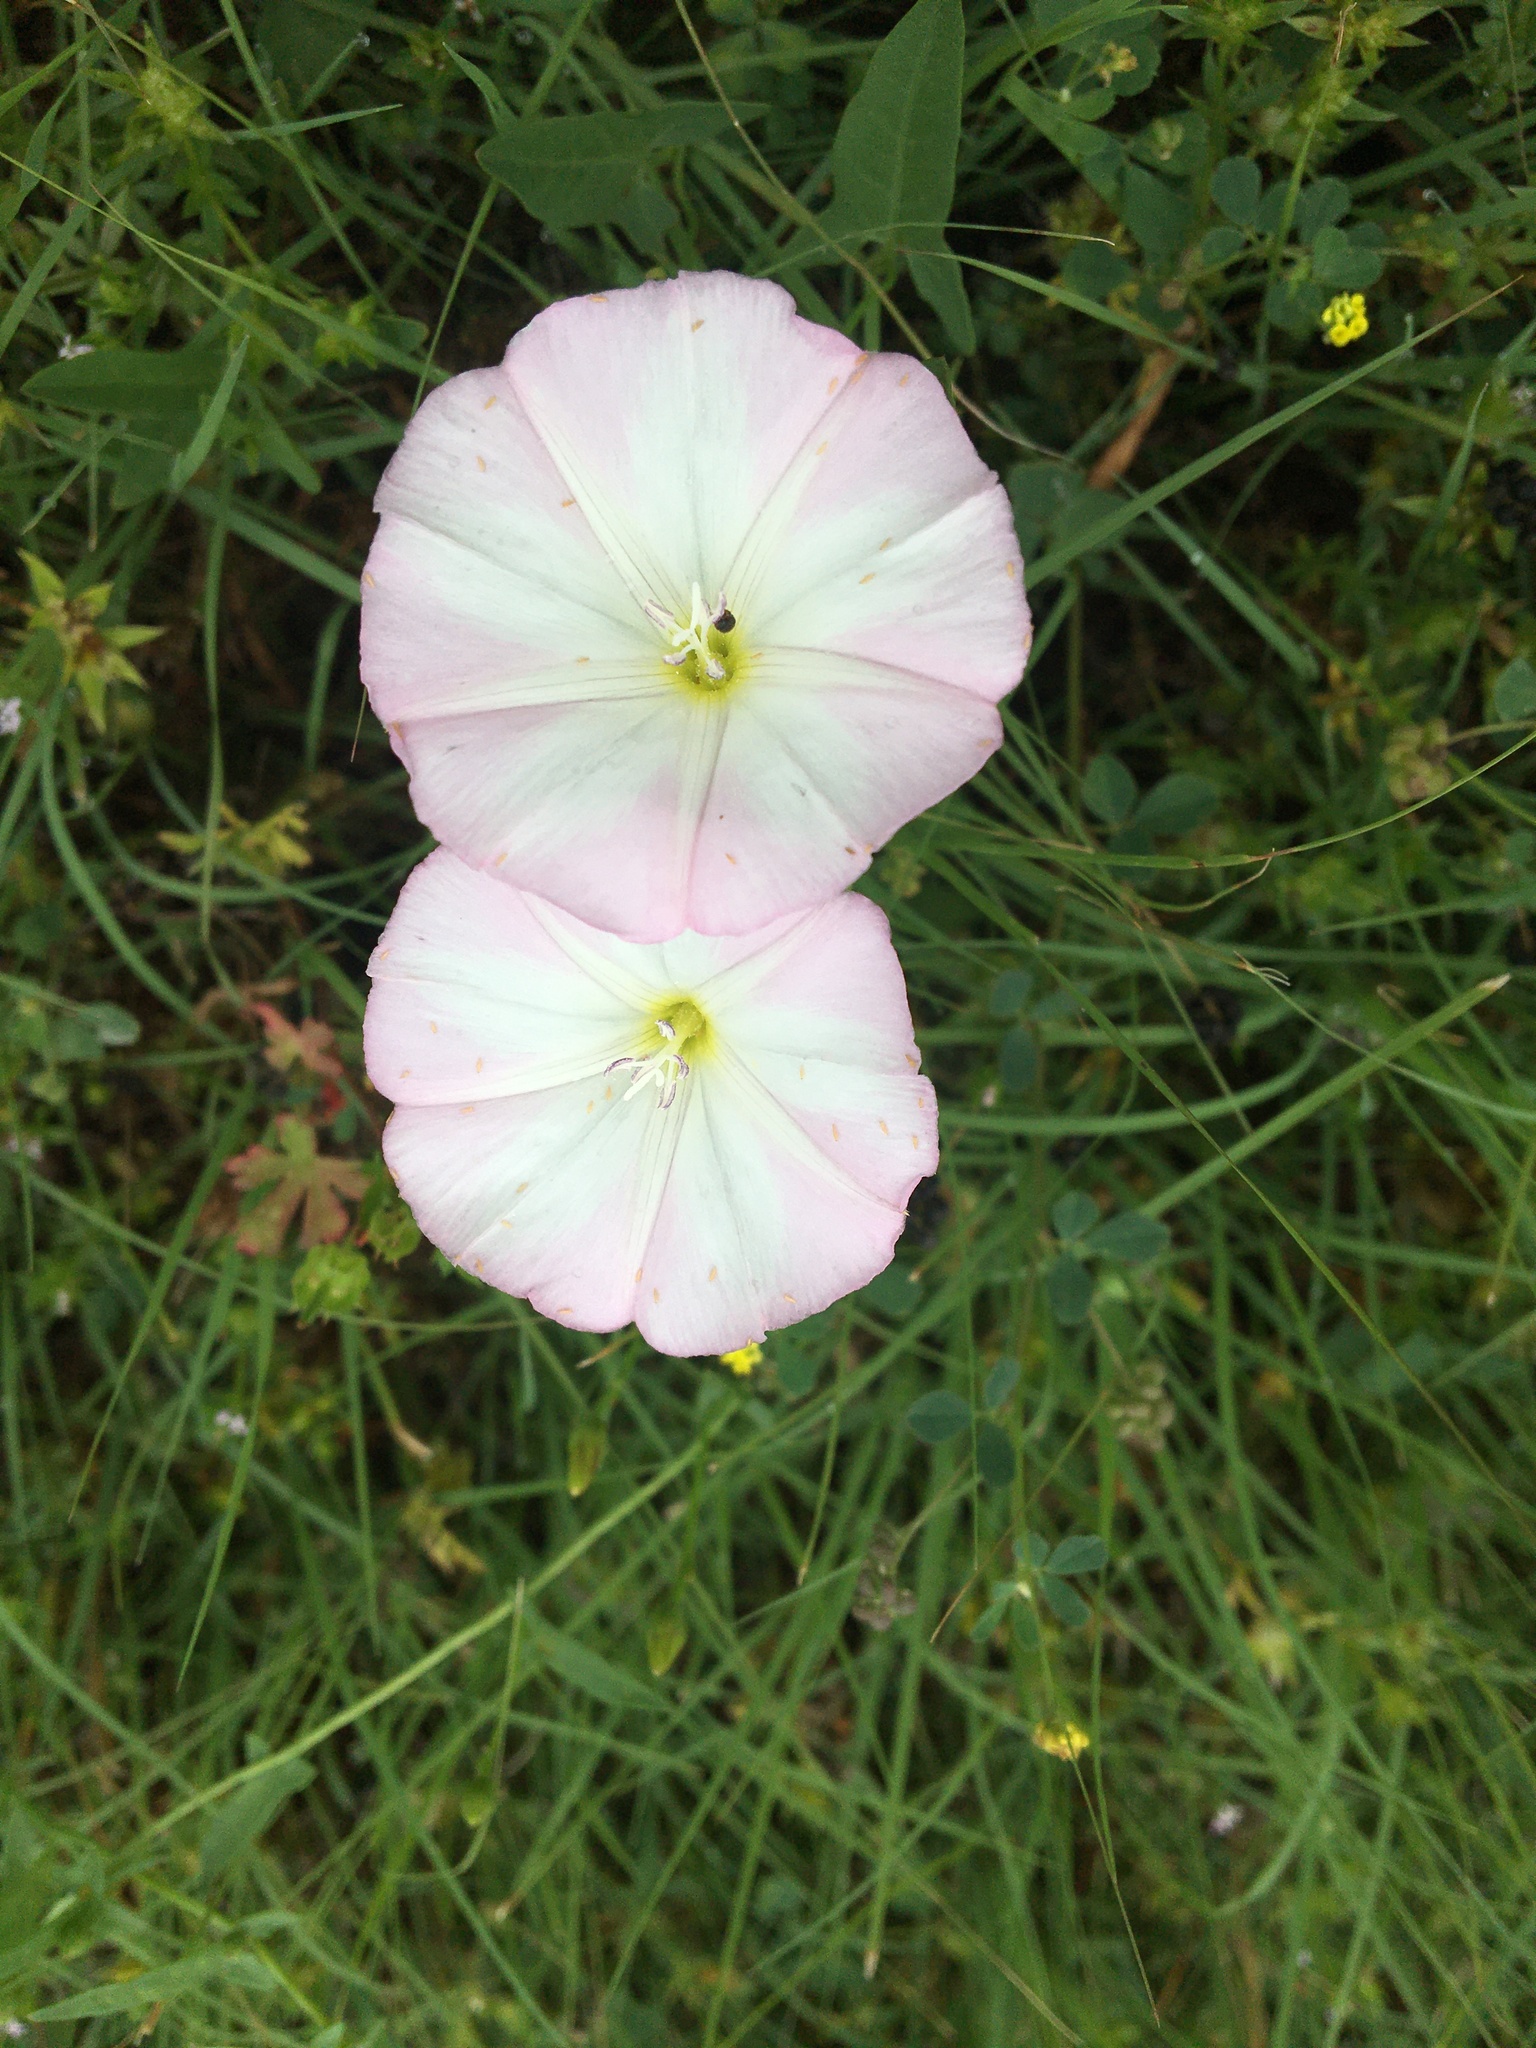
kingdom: Plantae
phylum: Tracheophyta
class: Magnoliopsida
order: Solanales
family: Convolvulaceae
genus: Convolvulus
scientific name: Convolvulus arvensis
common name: Field bindweed
